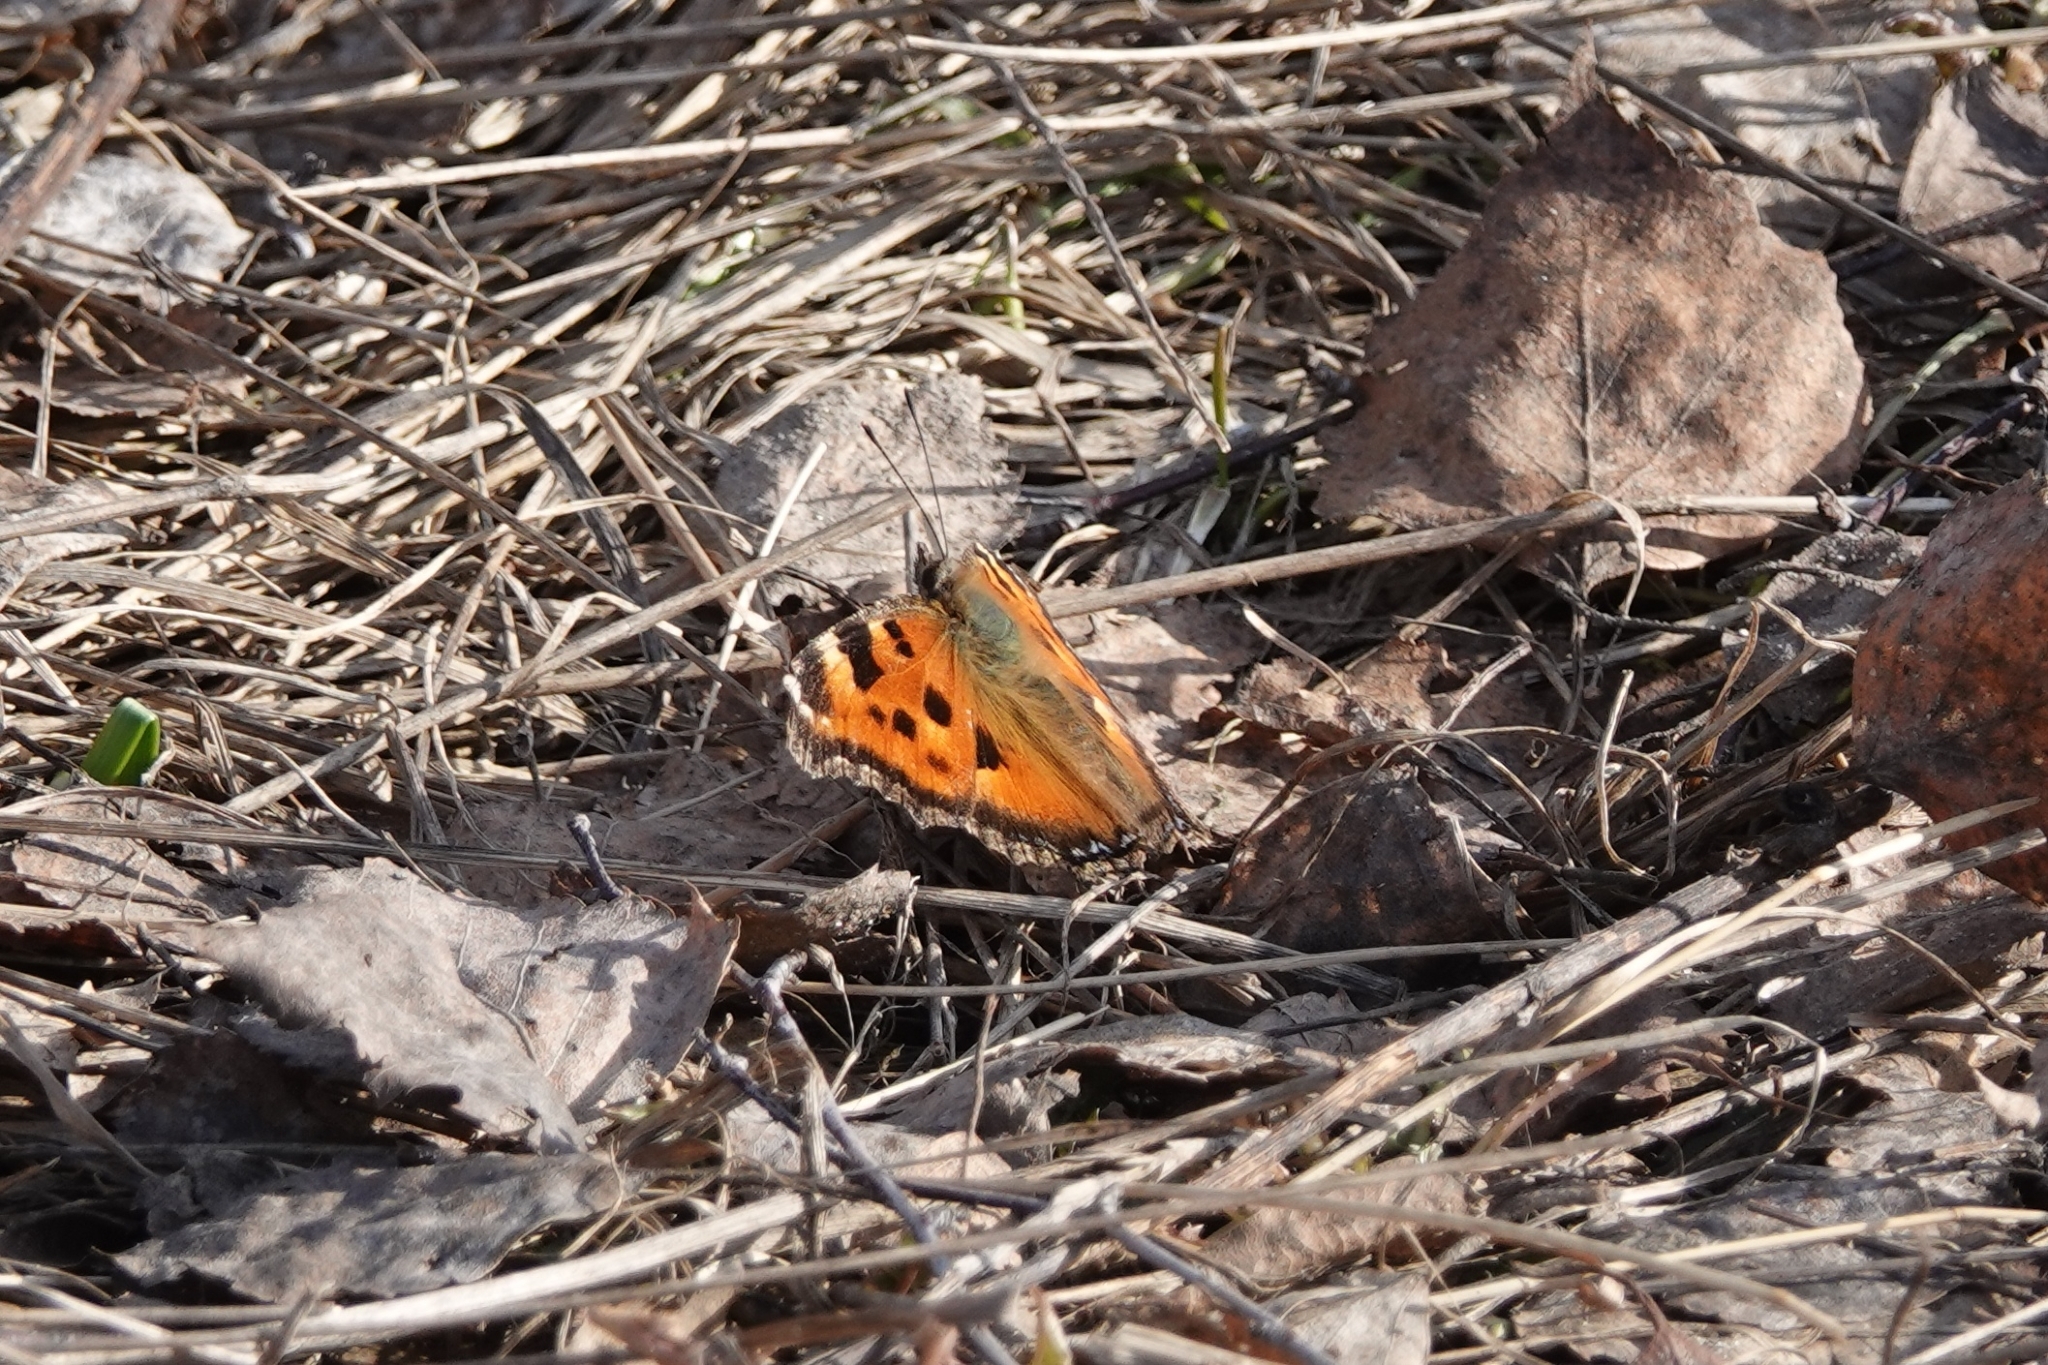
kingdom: Animalia
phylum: Arthropoda
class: Insecta
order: Lepidoptera
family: Nymphalidae
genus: Nymphalis
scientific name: Nymphalis xanthomelas
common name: Scarce tortoiseshell
